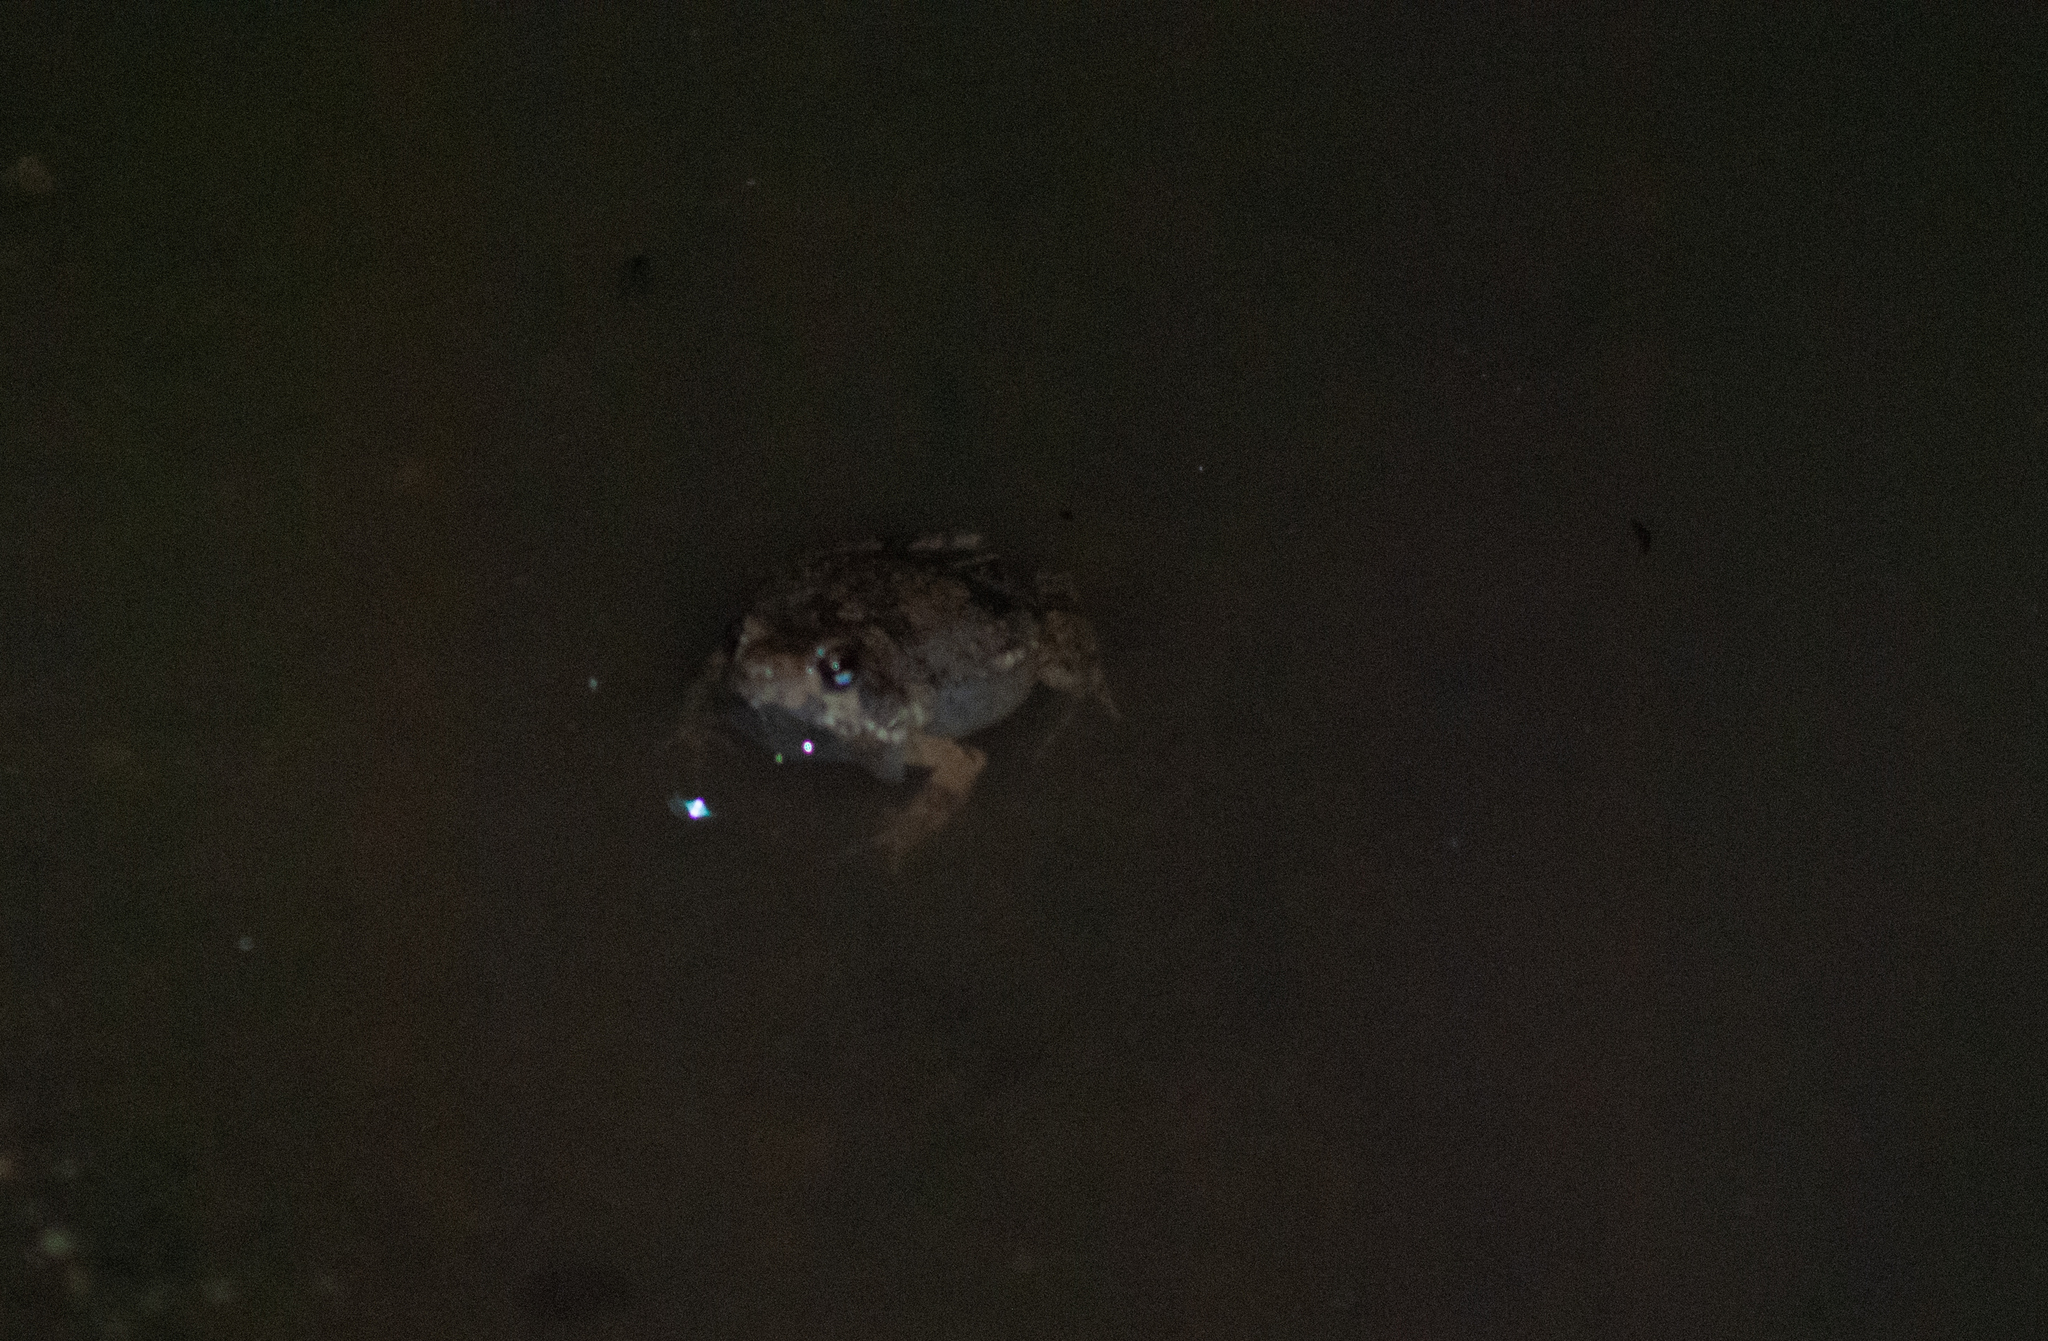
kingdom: Animalia
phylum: Chordata
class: Amphibia
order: Anura
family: Leptodactylidae
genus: Engystomops
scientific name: Engystomops pustulosus
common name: Tungara frog
